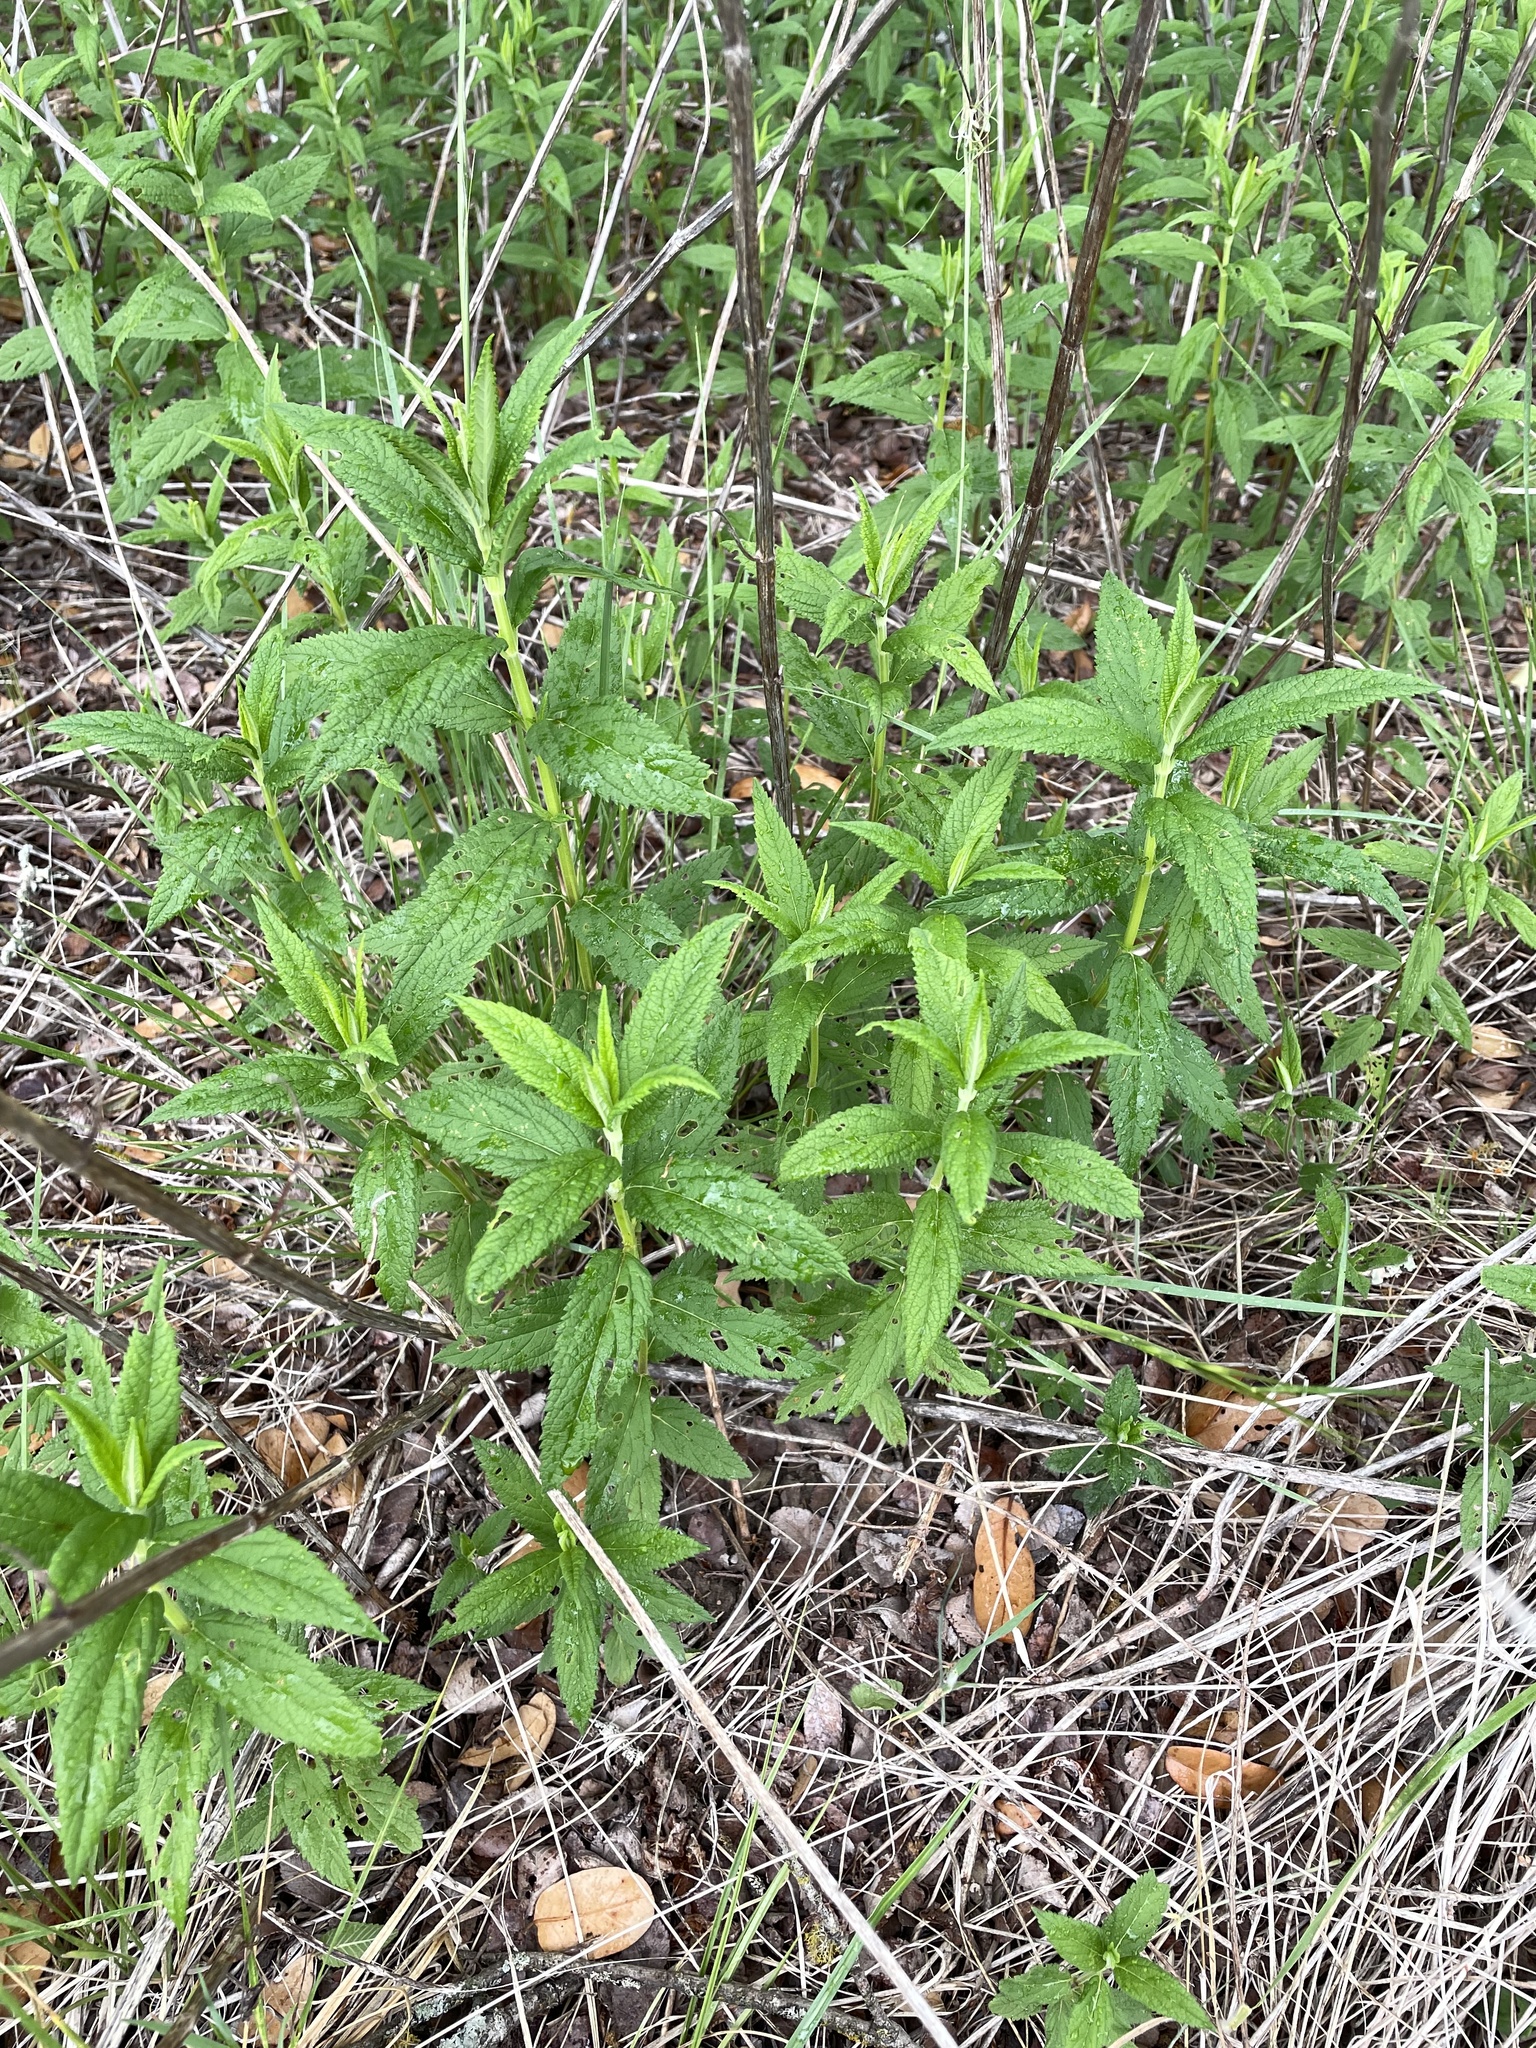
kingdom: Plantae
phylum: Tracheophyta
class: Magnoliopsida
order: Lamiales
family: Lamiaceae
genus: Teucrium
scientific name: Teucrium canadense
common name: American germander
